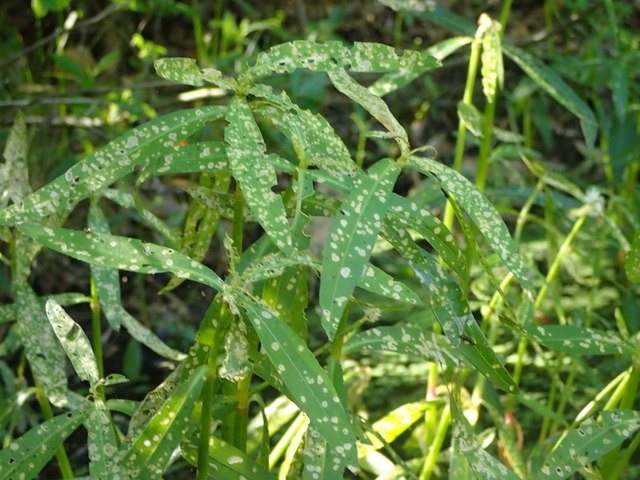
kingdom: Plantae
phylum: Tracheophyta
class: Magnoliopsida
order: Caryophyllales
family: Amaranthaceae
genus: Alternanthera
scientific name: Alternanthera philoxeroides
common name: Alligatorweed
